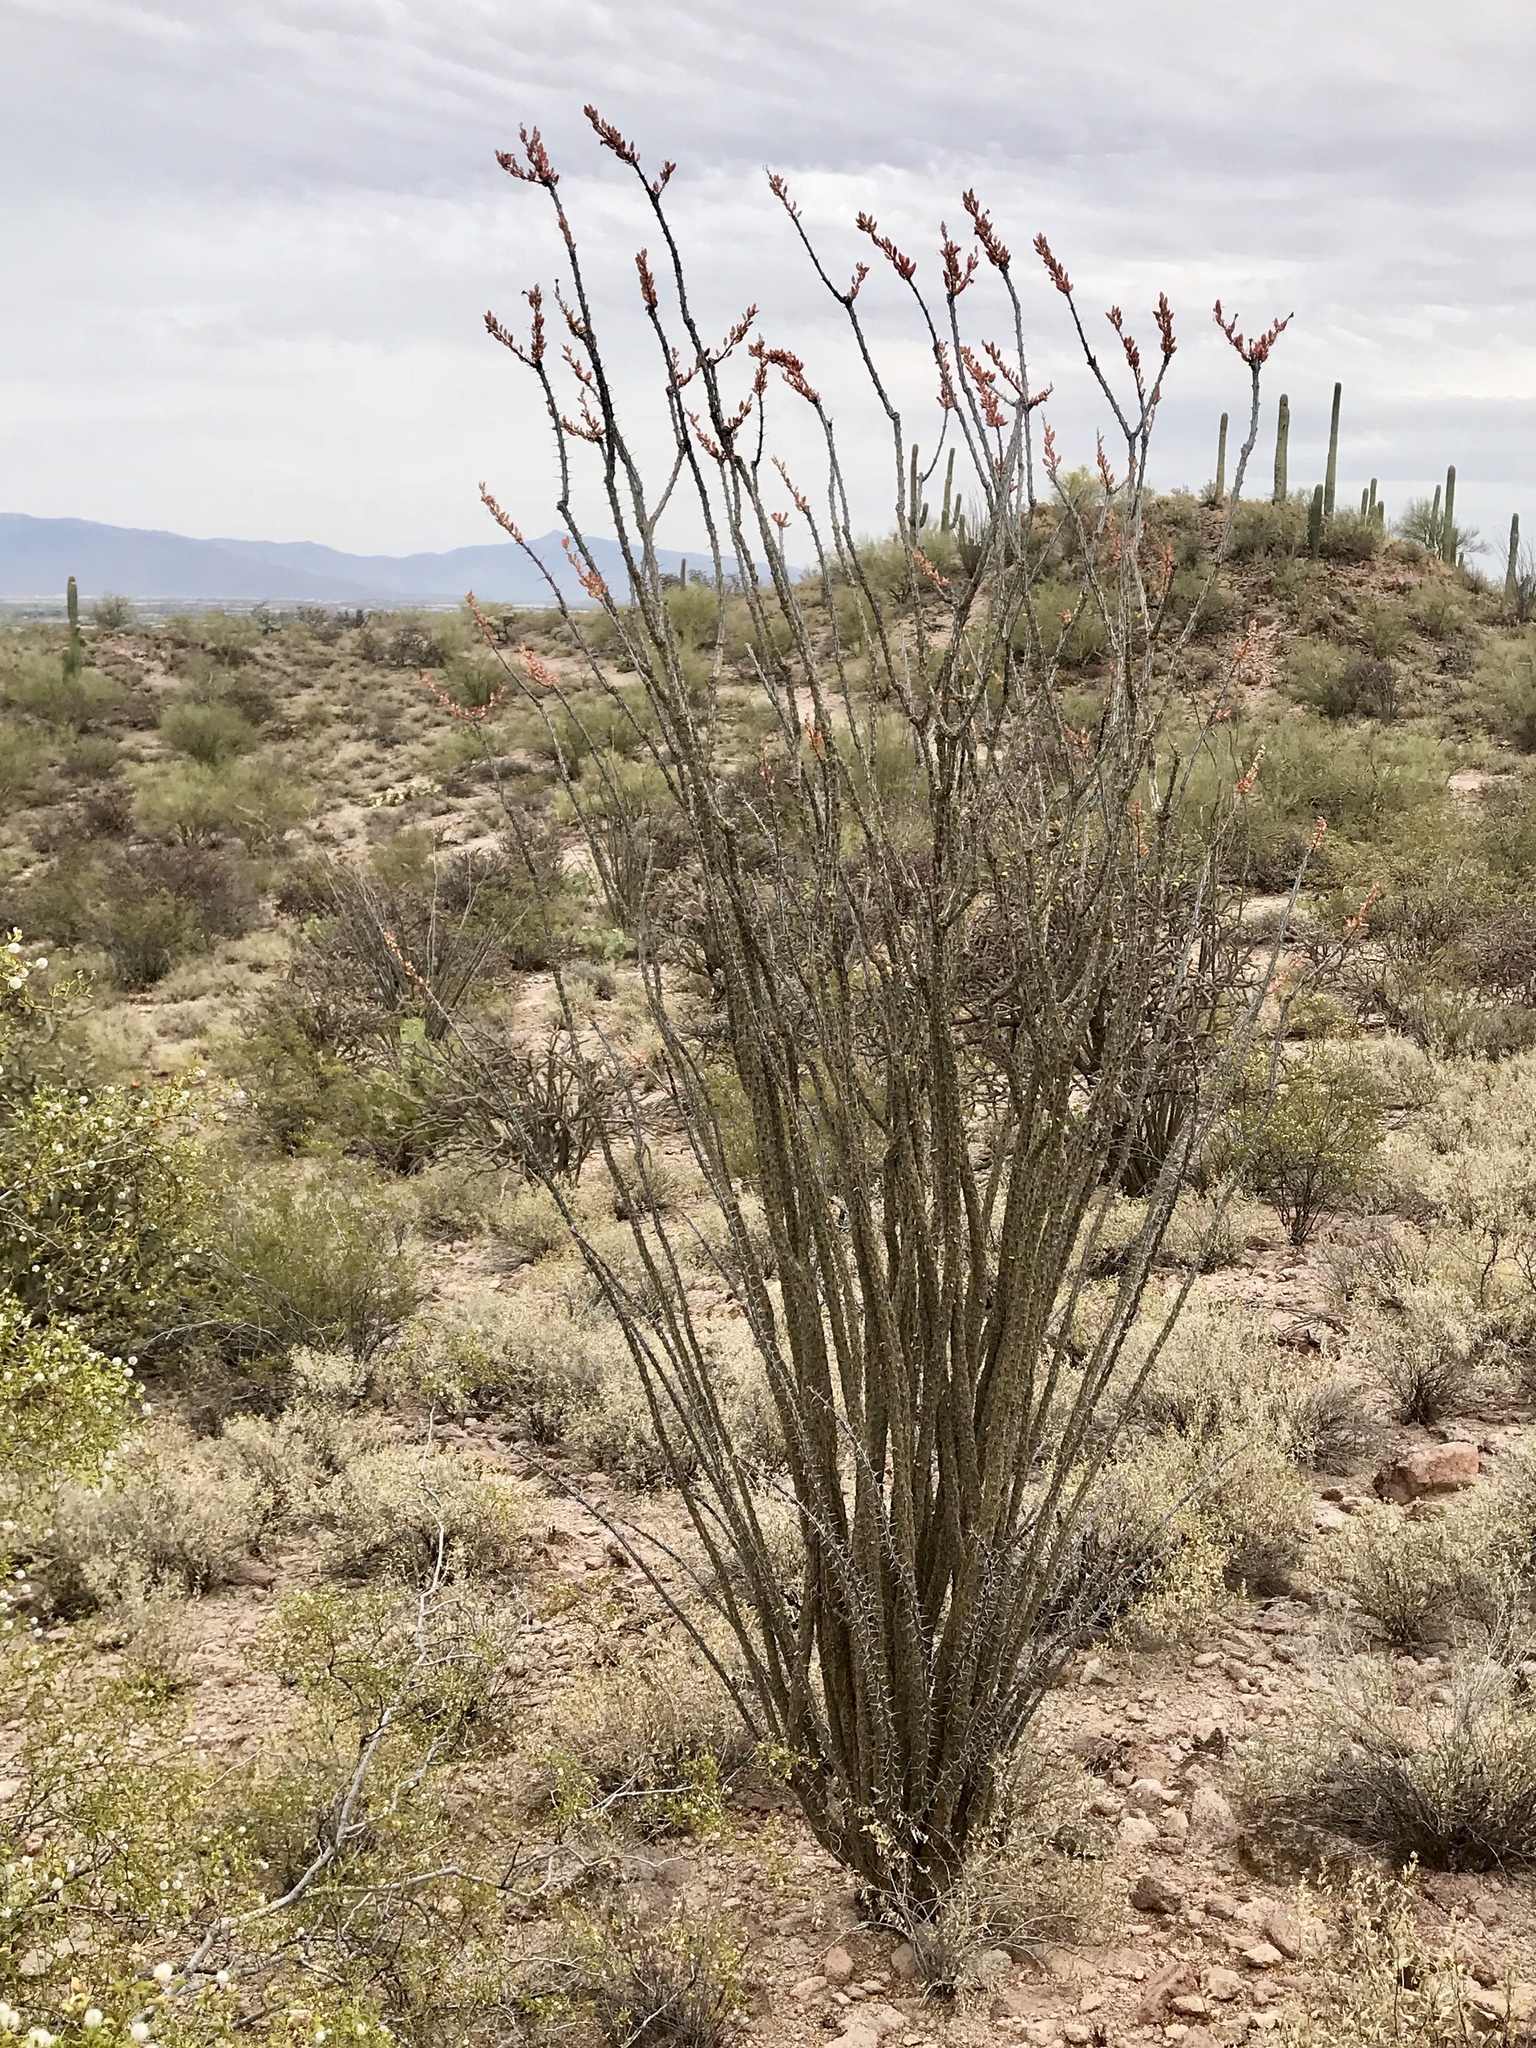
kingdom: Plantae
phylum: Tracheophyta
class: Magnoliopsida
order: Ericales
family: Fouquieriaceae
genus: Fouquieria
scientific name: Fouquieria splendens
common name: Vine-cactus
